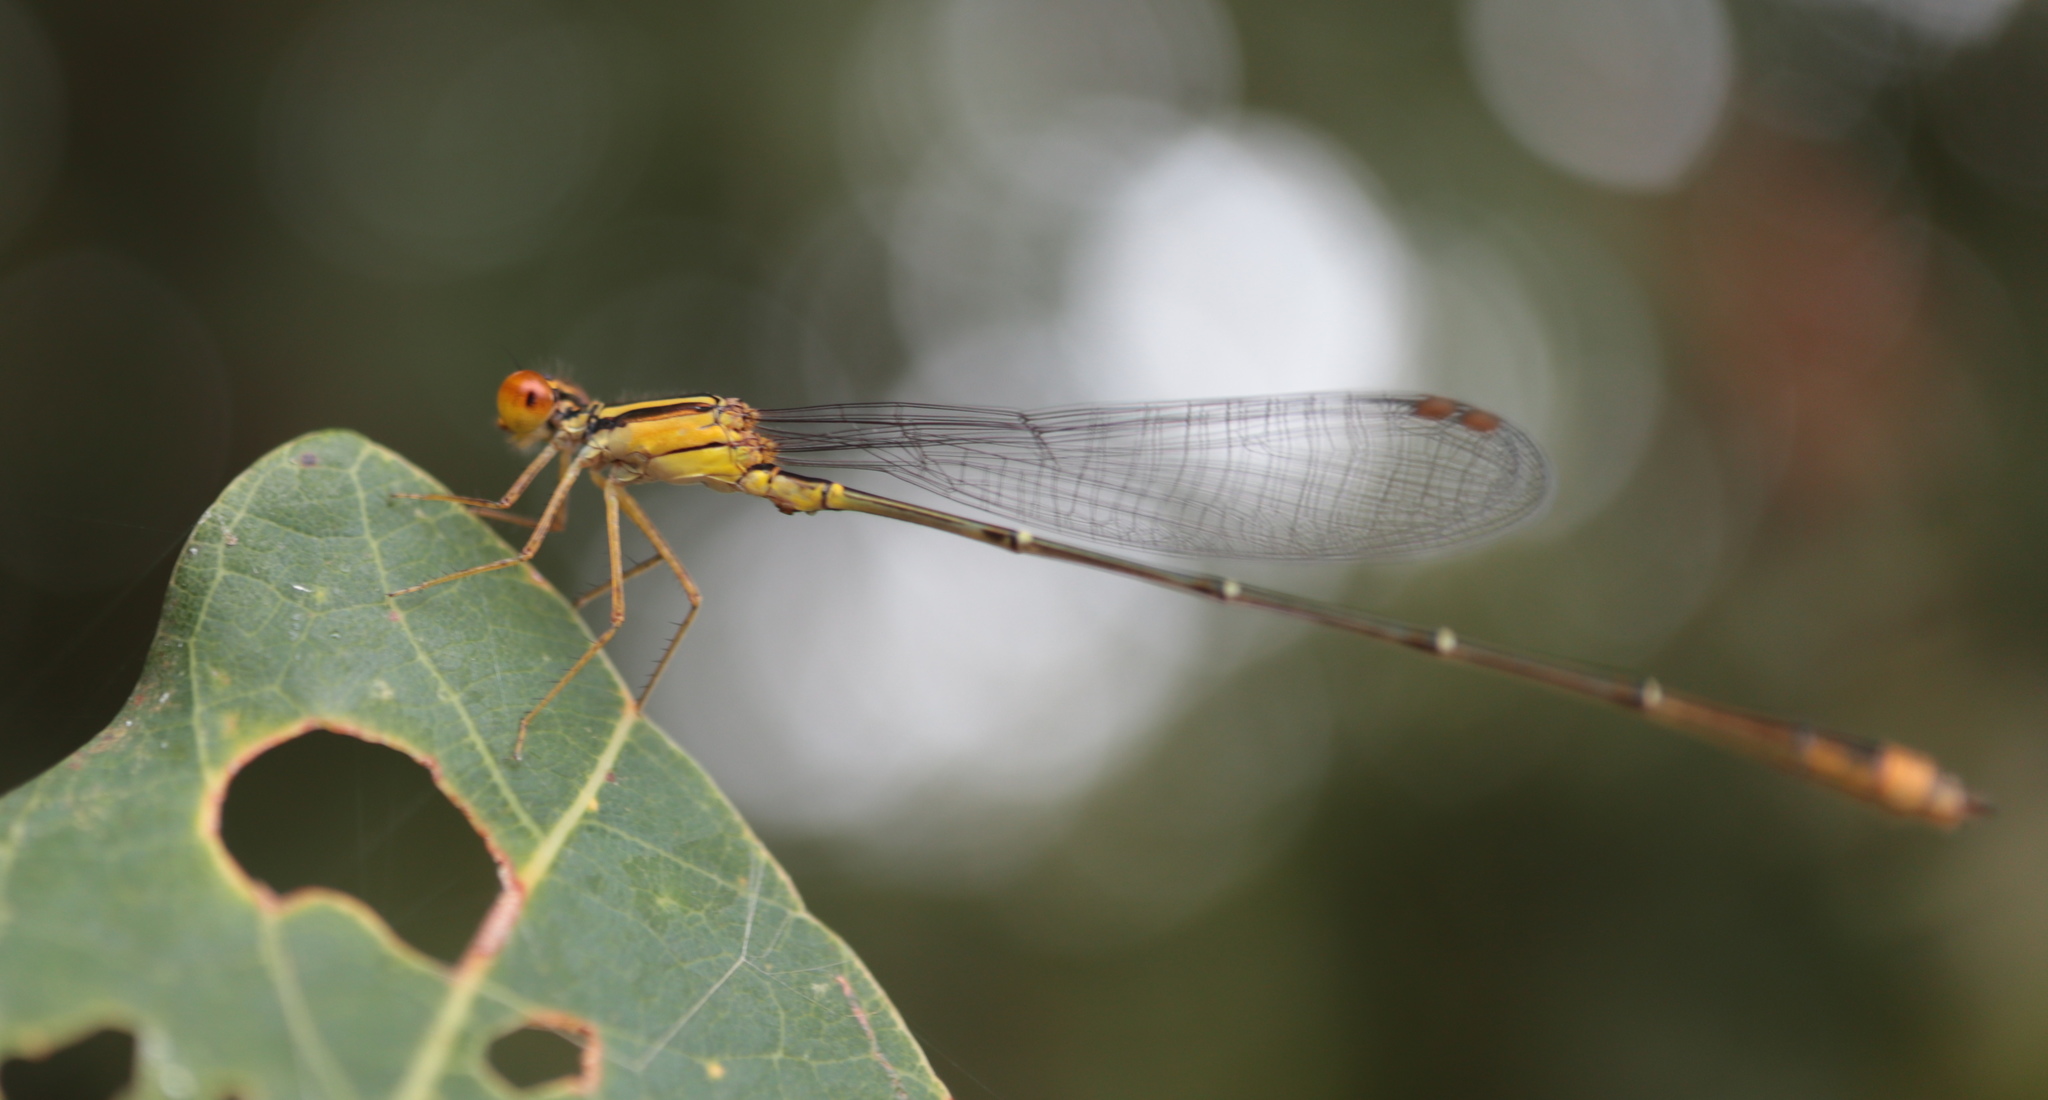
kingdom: Animalia
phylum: Arthropoda
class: Insecta
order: Odonata
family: Coenagrionidae
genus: Enallagma
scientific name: Enallagma signatum
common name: Orange bluet
